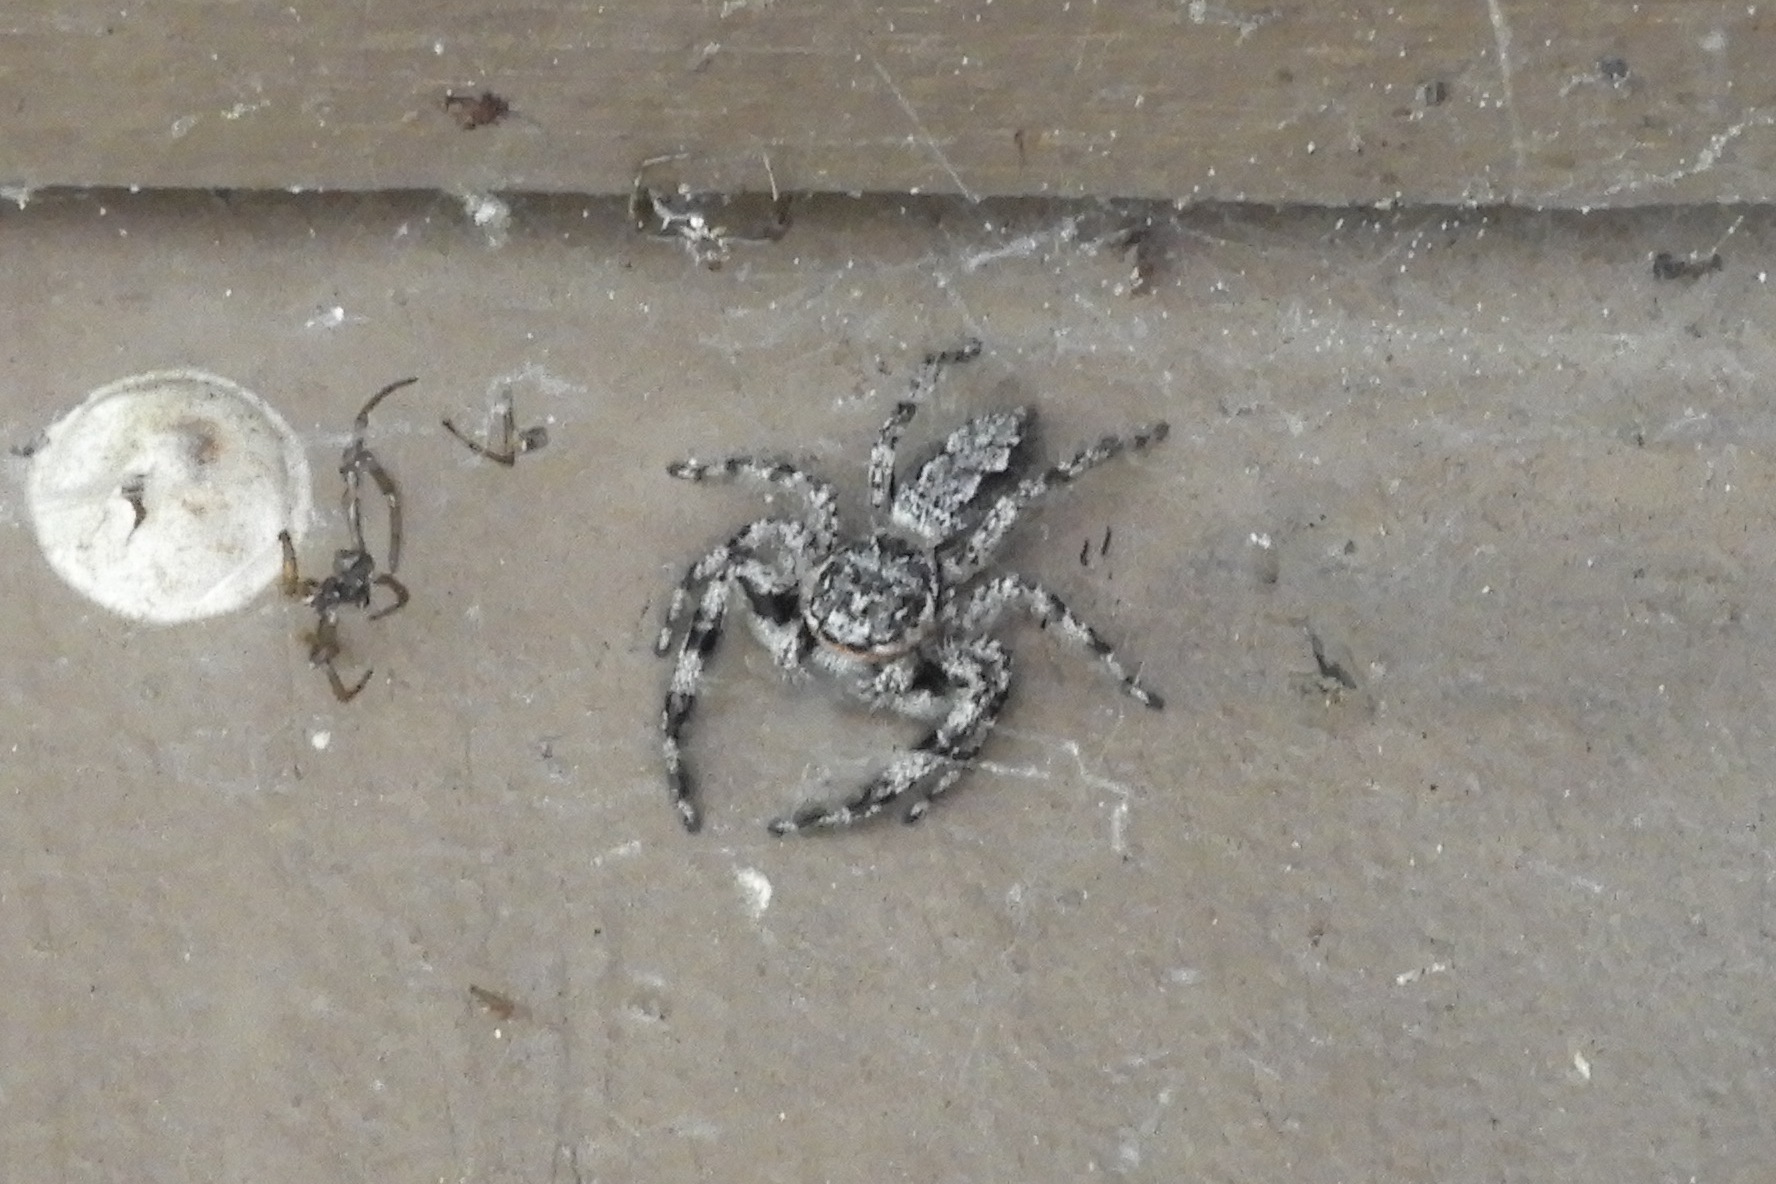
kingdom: Animalia
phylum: Arthropoda
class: Arachnida
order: Araneae
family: Salticidae
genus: Platycryptus
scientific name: Platycryptus undatus
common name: Tan jumping spider
